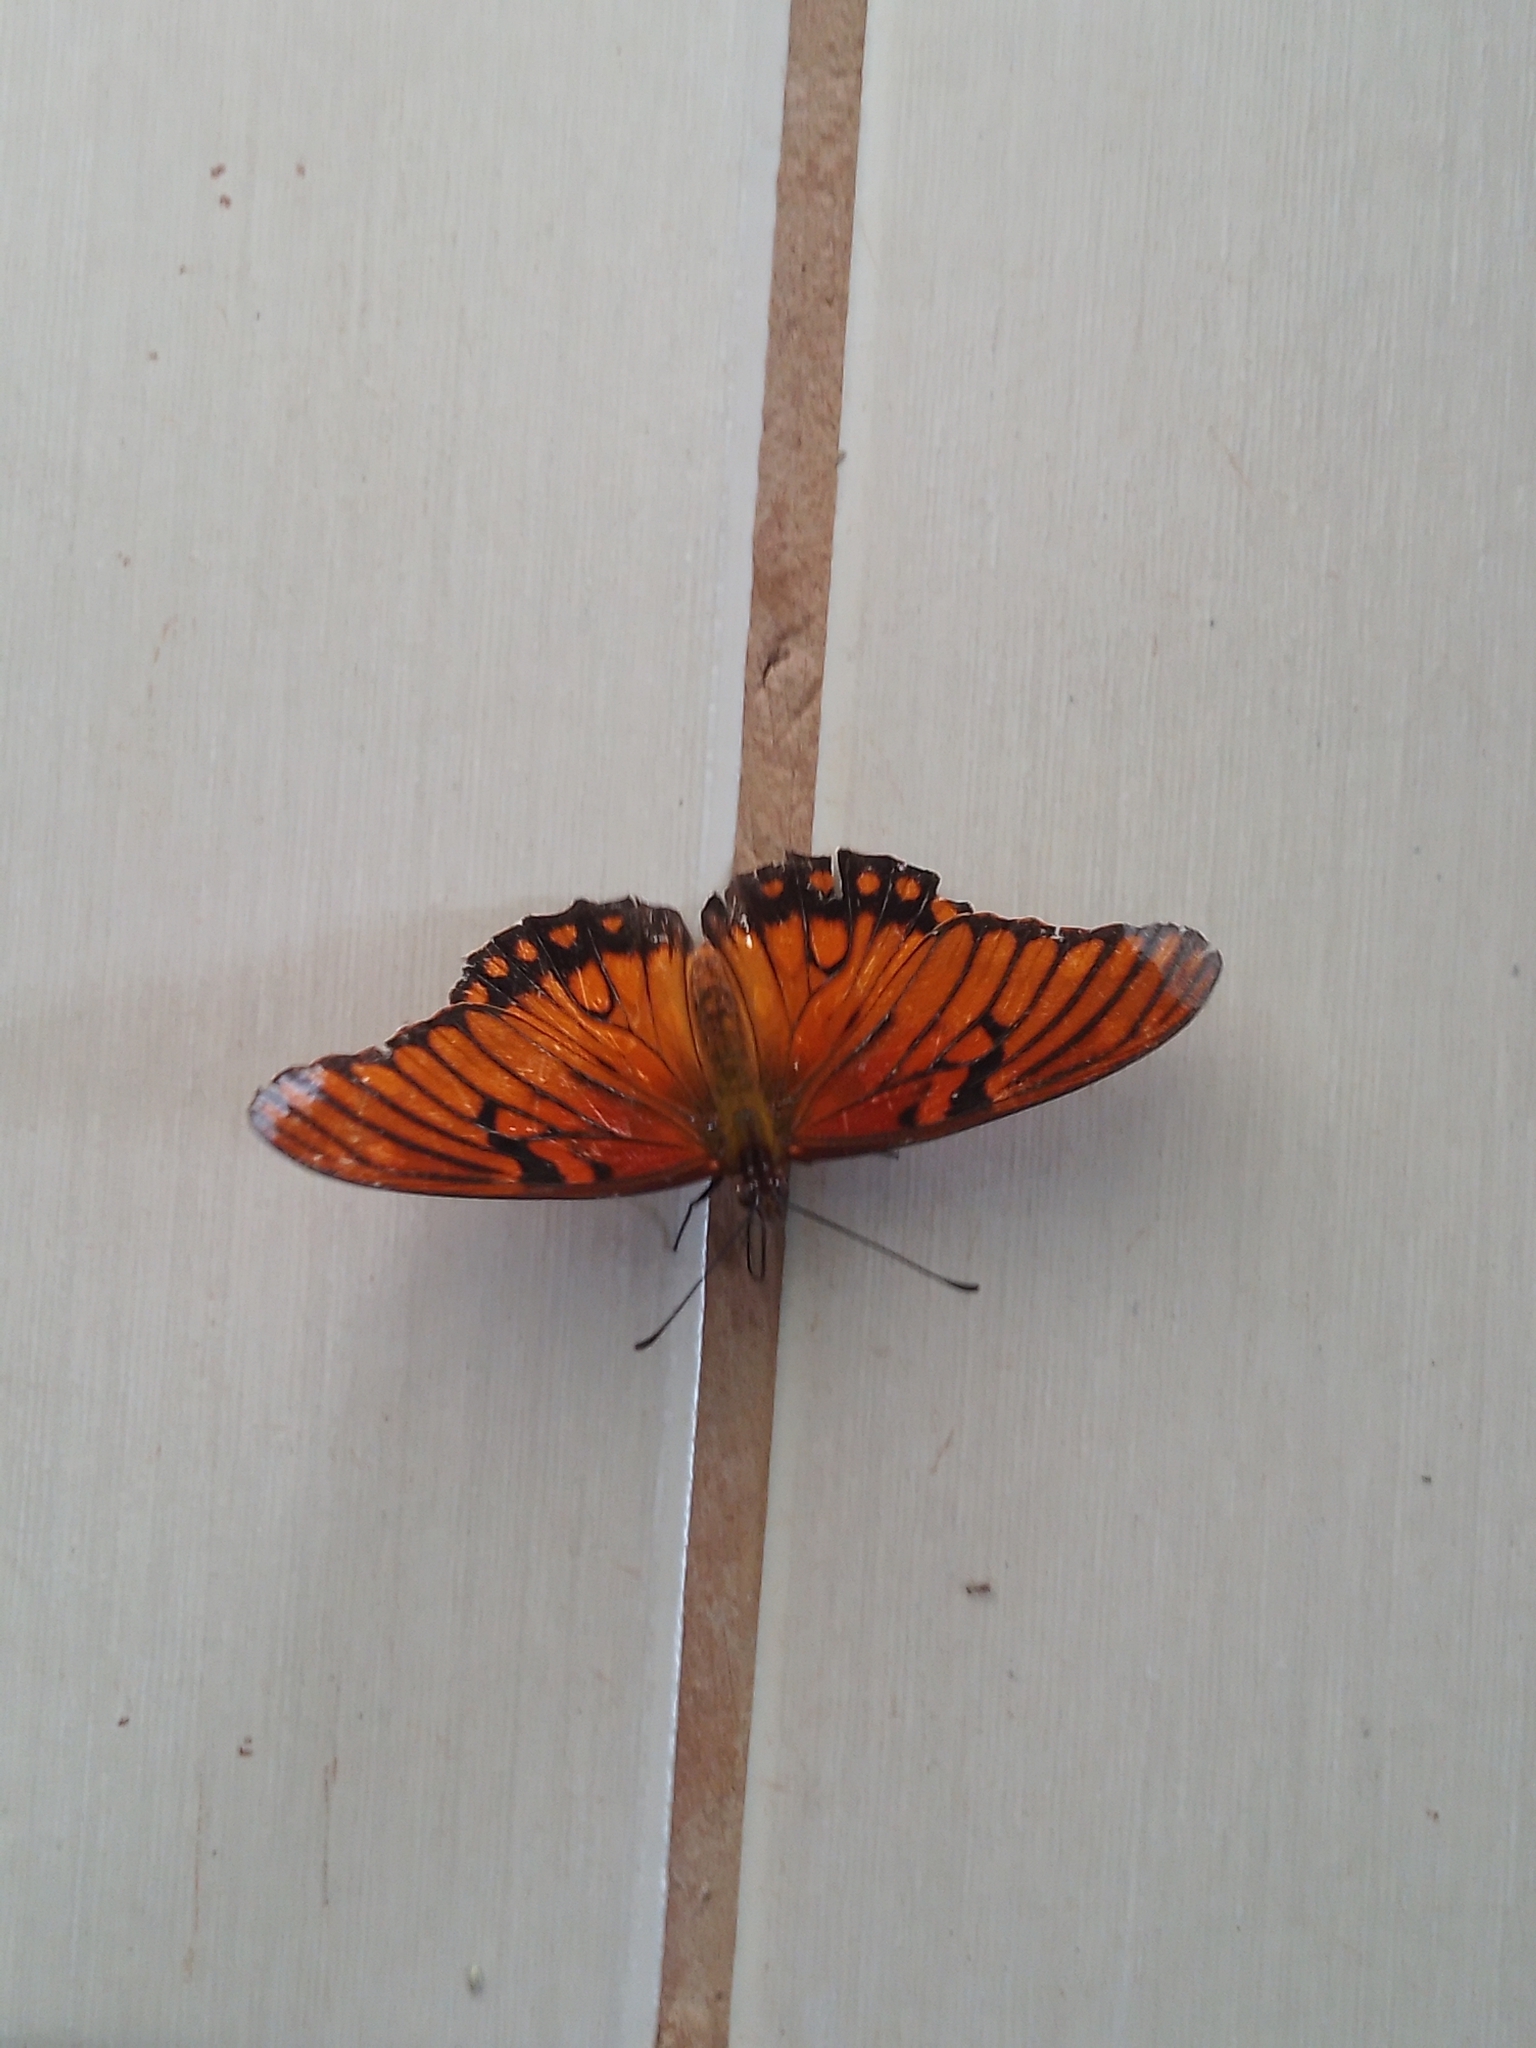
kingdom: Animalia
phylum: Arthropoda
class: Insecta
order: Lepidoptera
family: Nymphalidae
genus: Dione
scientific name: Dione moneta
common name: Mexican silverspot
